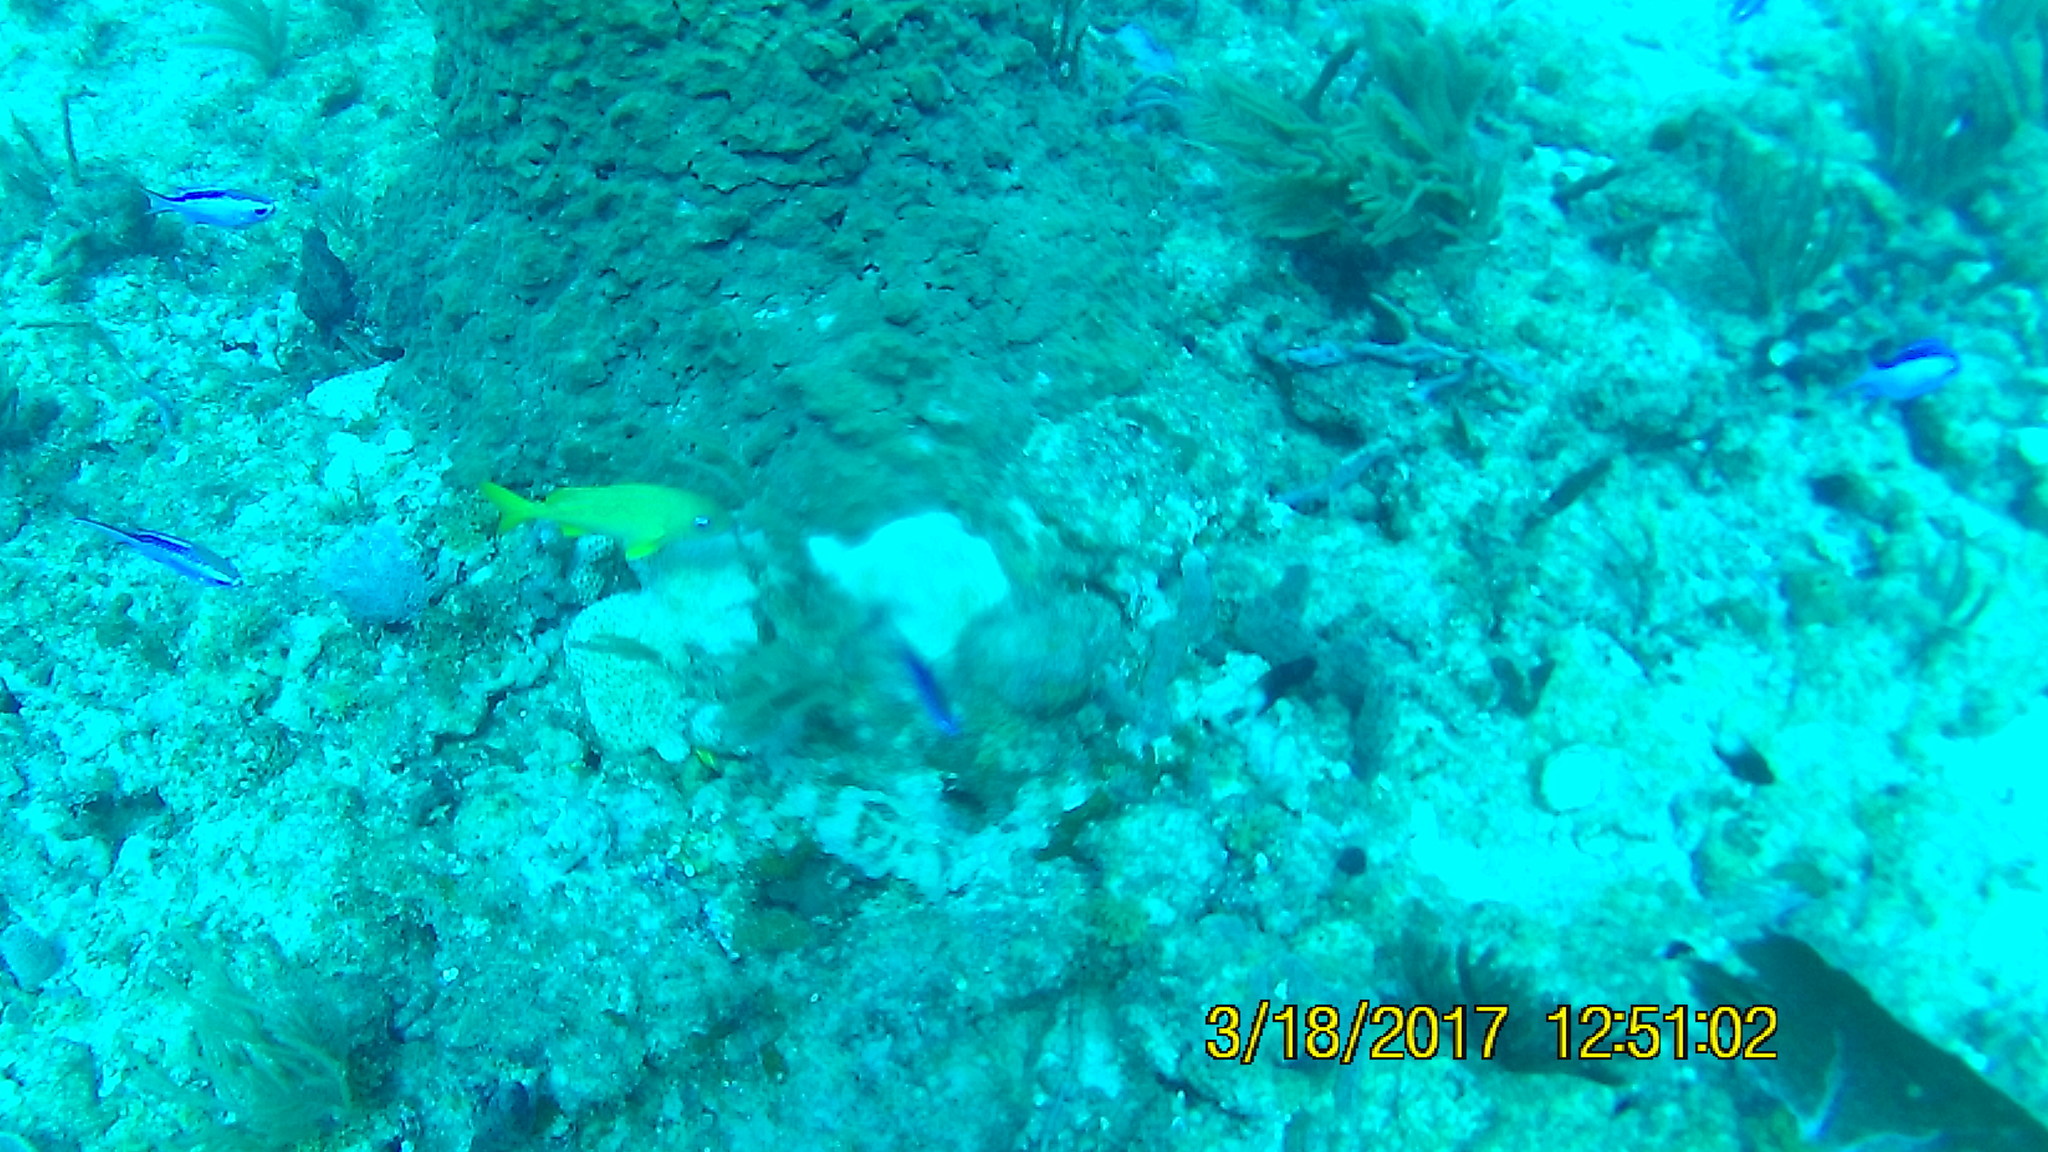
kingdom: Animalia
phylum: Chordata
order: Perciformes
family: Pomacentridae
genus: Chromis
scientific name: Chromis cyanea
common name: Blue chromis
